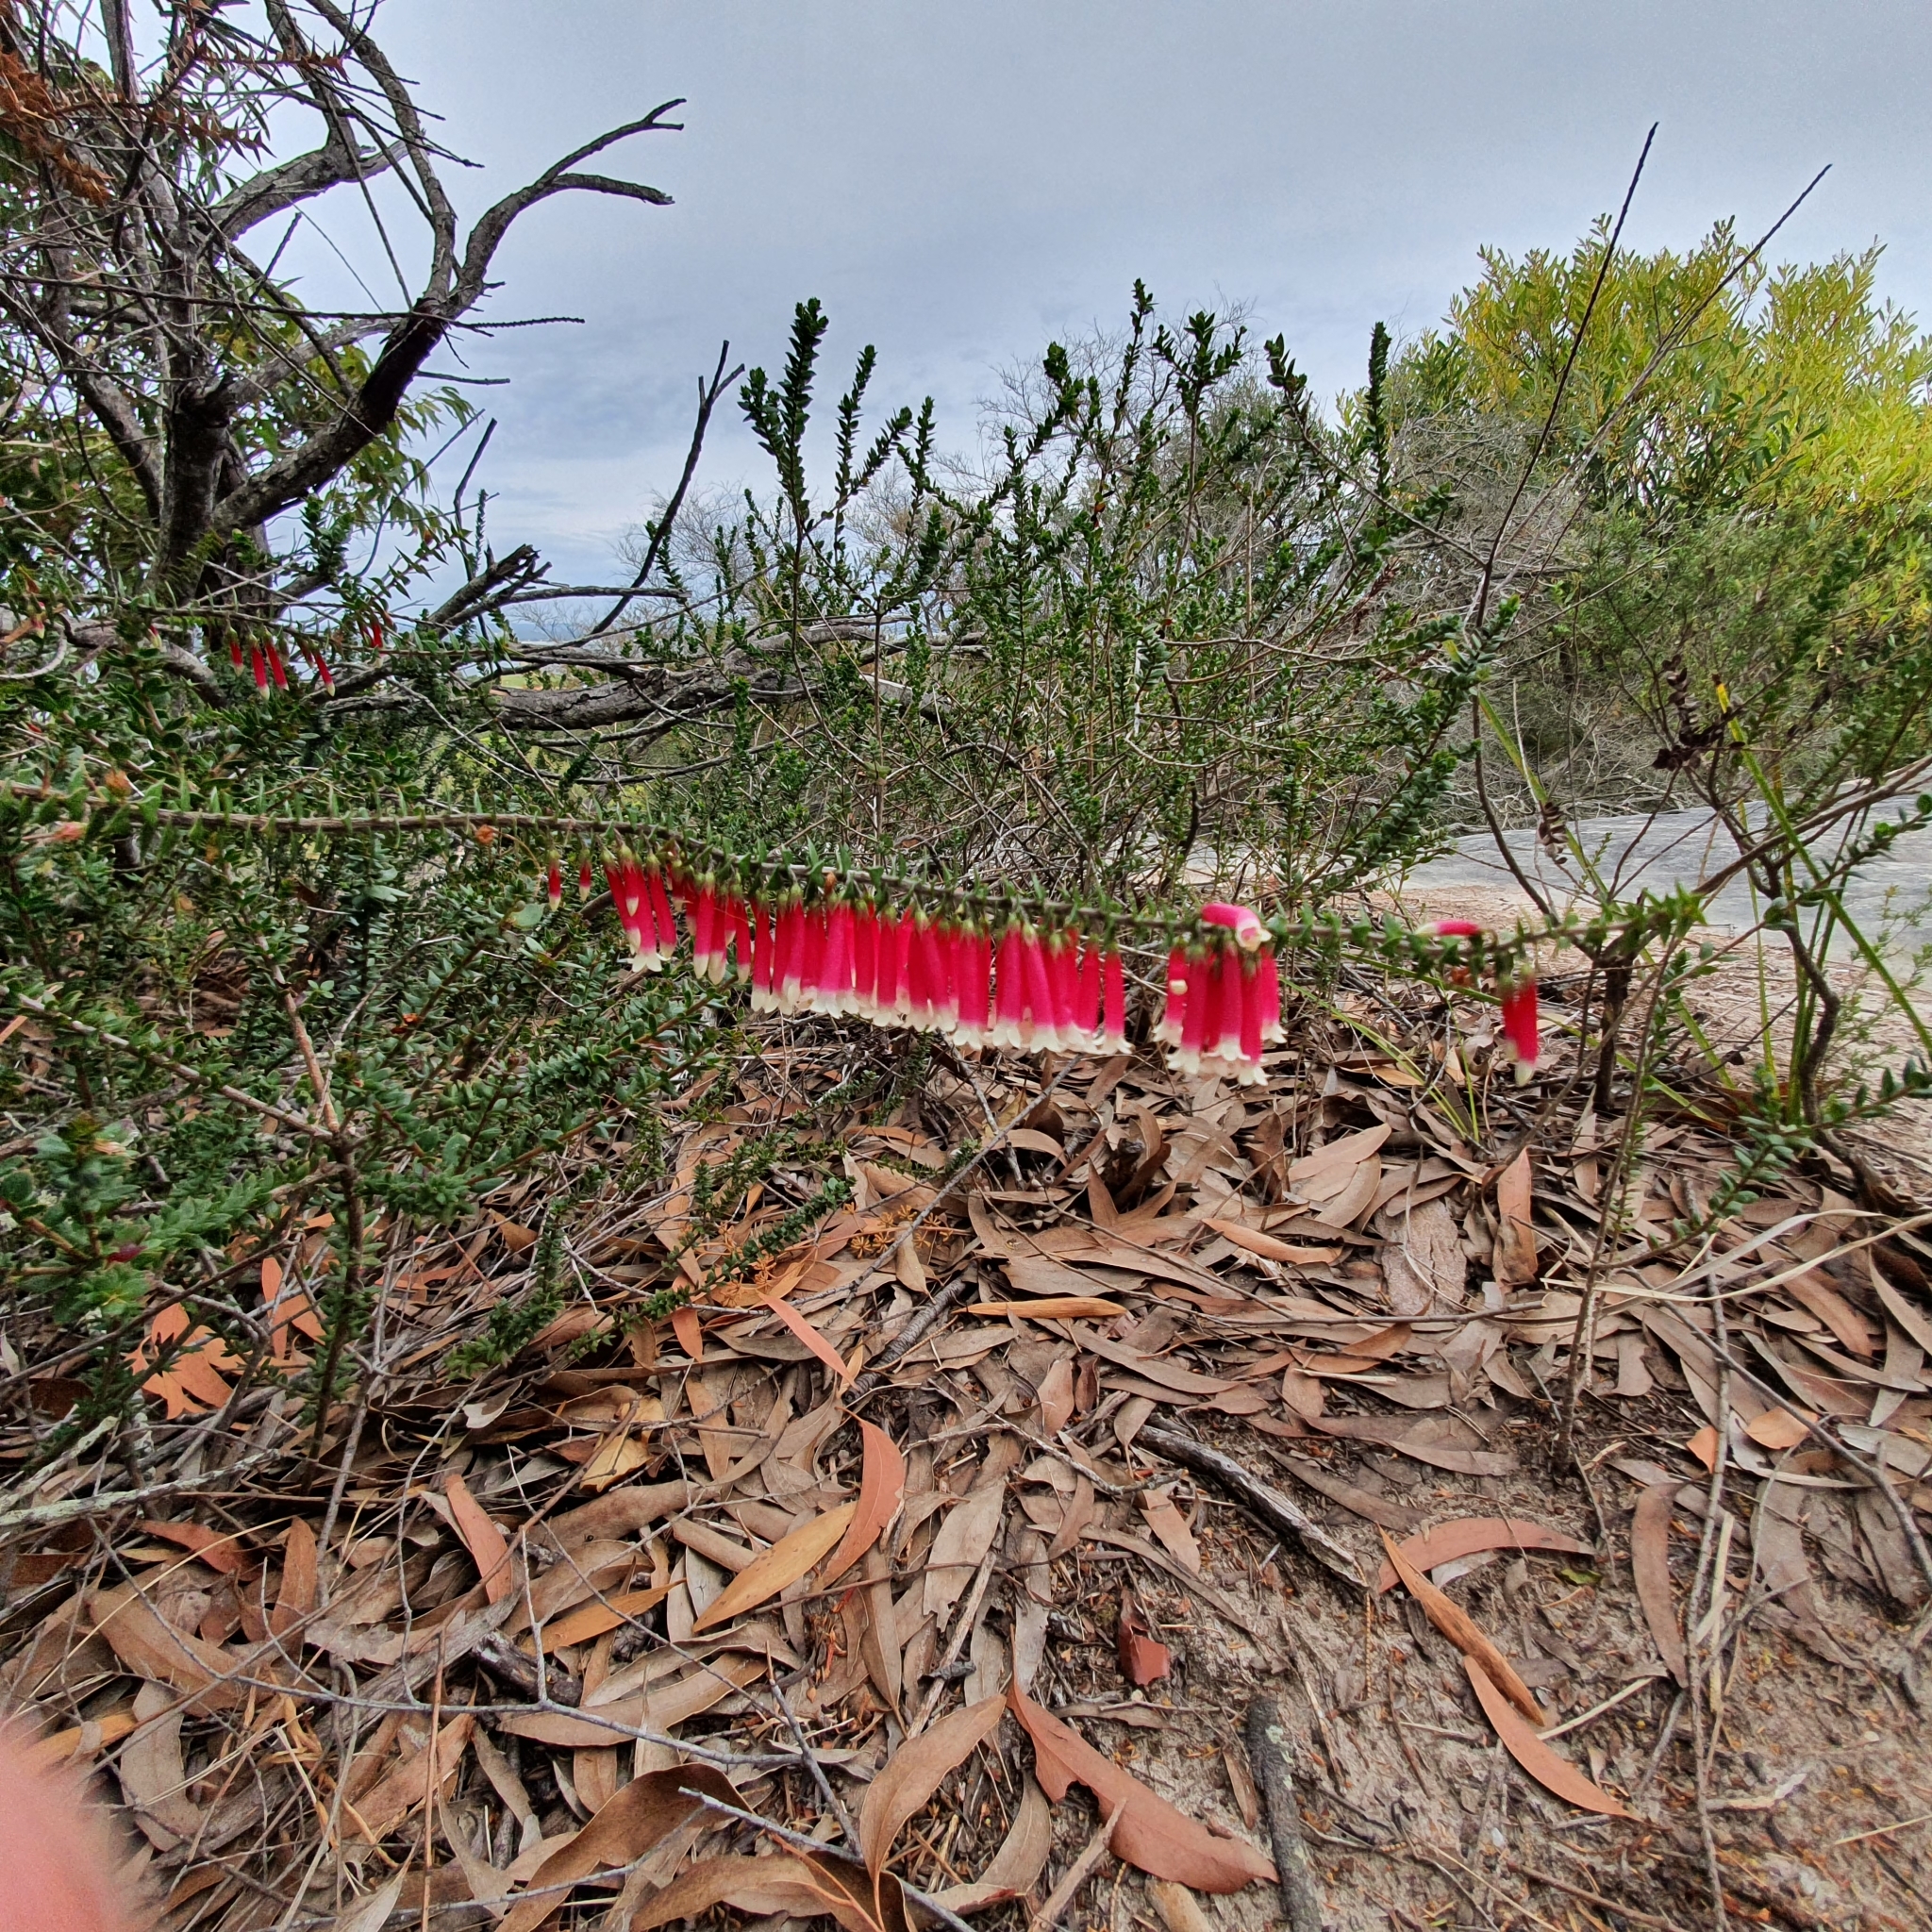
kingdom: Plantae
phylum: Tracheophyta
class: Magnoliopsida
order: Ericales
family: Ericaceae
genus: Epacris
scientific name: Epacris longiflora
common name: Fuchsia-heath
